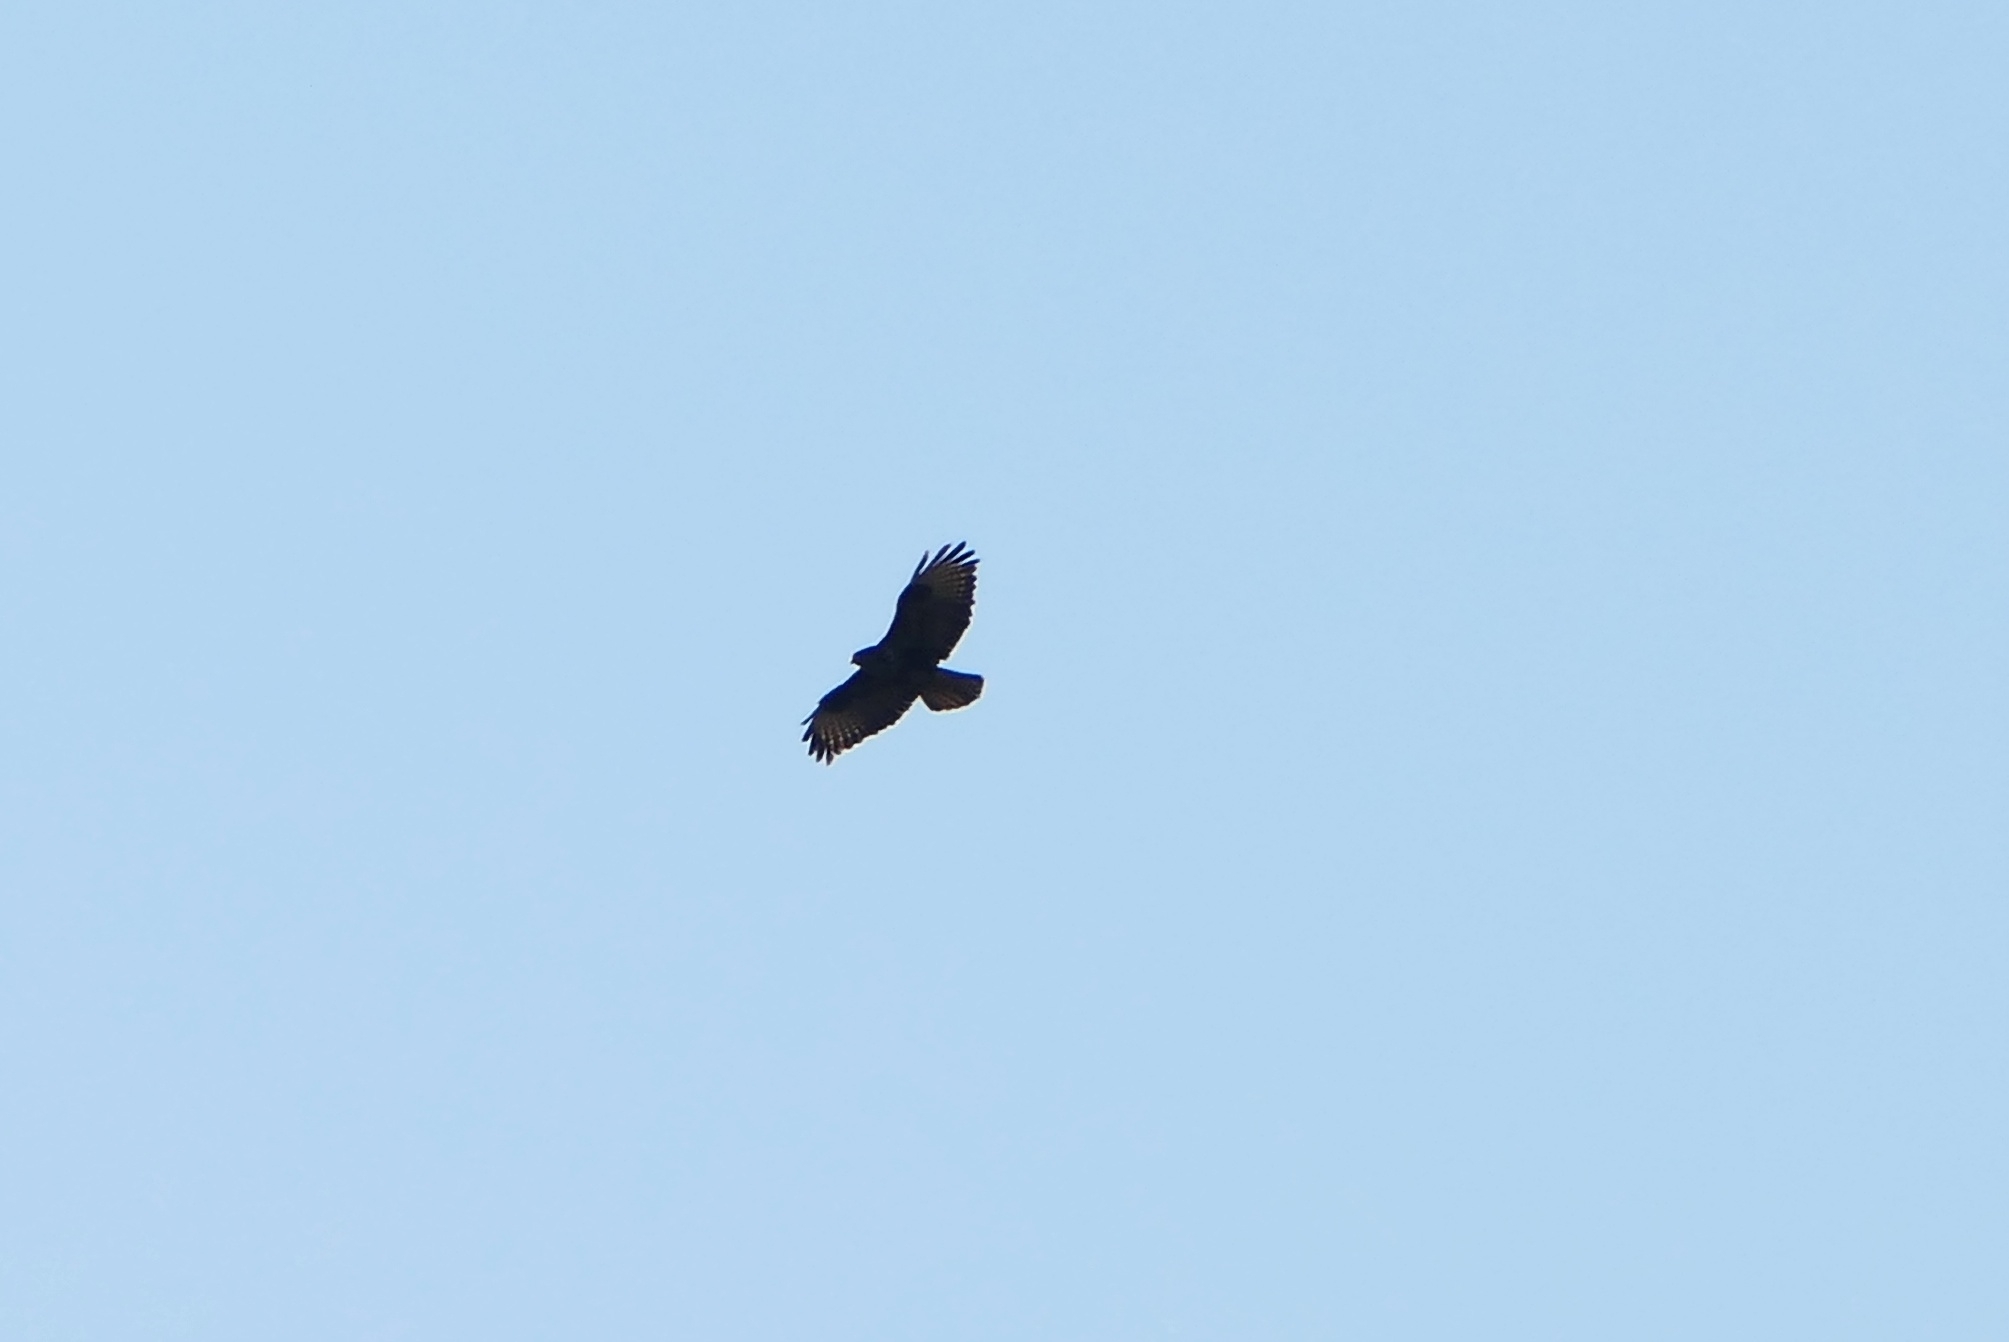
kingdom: Animalia
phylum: Chordata
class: Aves
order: Accipitriformes
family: Accipitridae
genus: Buteo
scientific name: Buteo buteo
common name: Common buzzard
